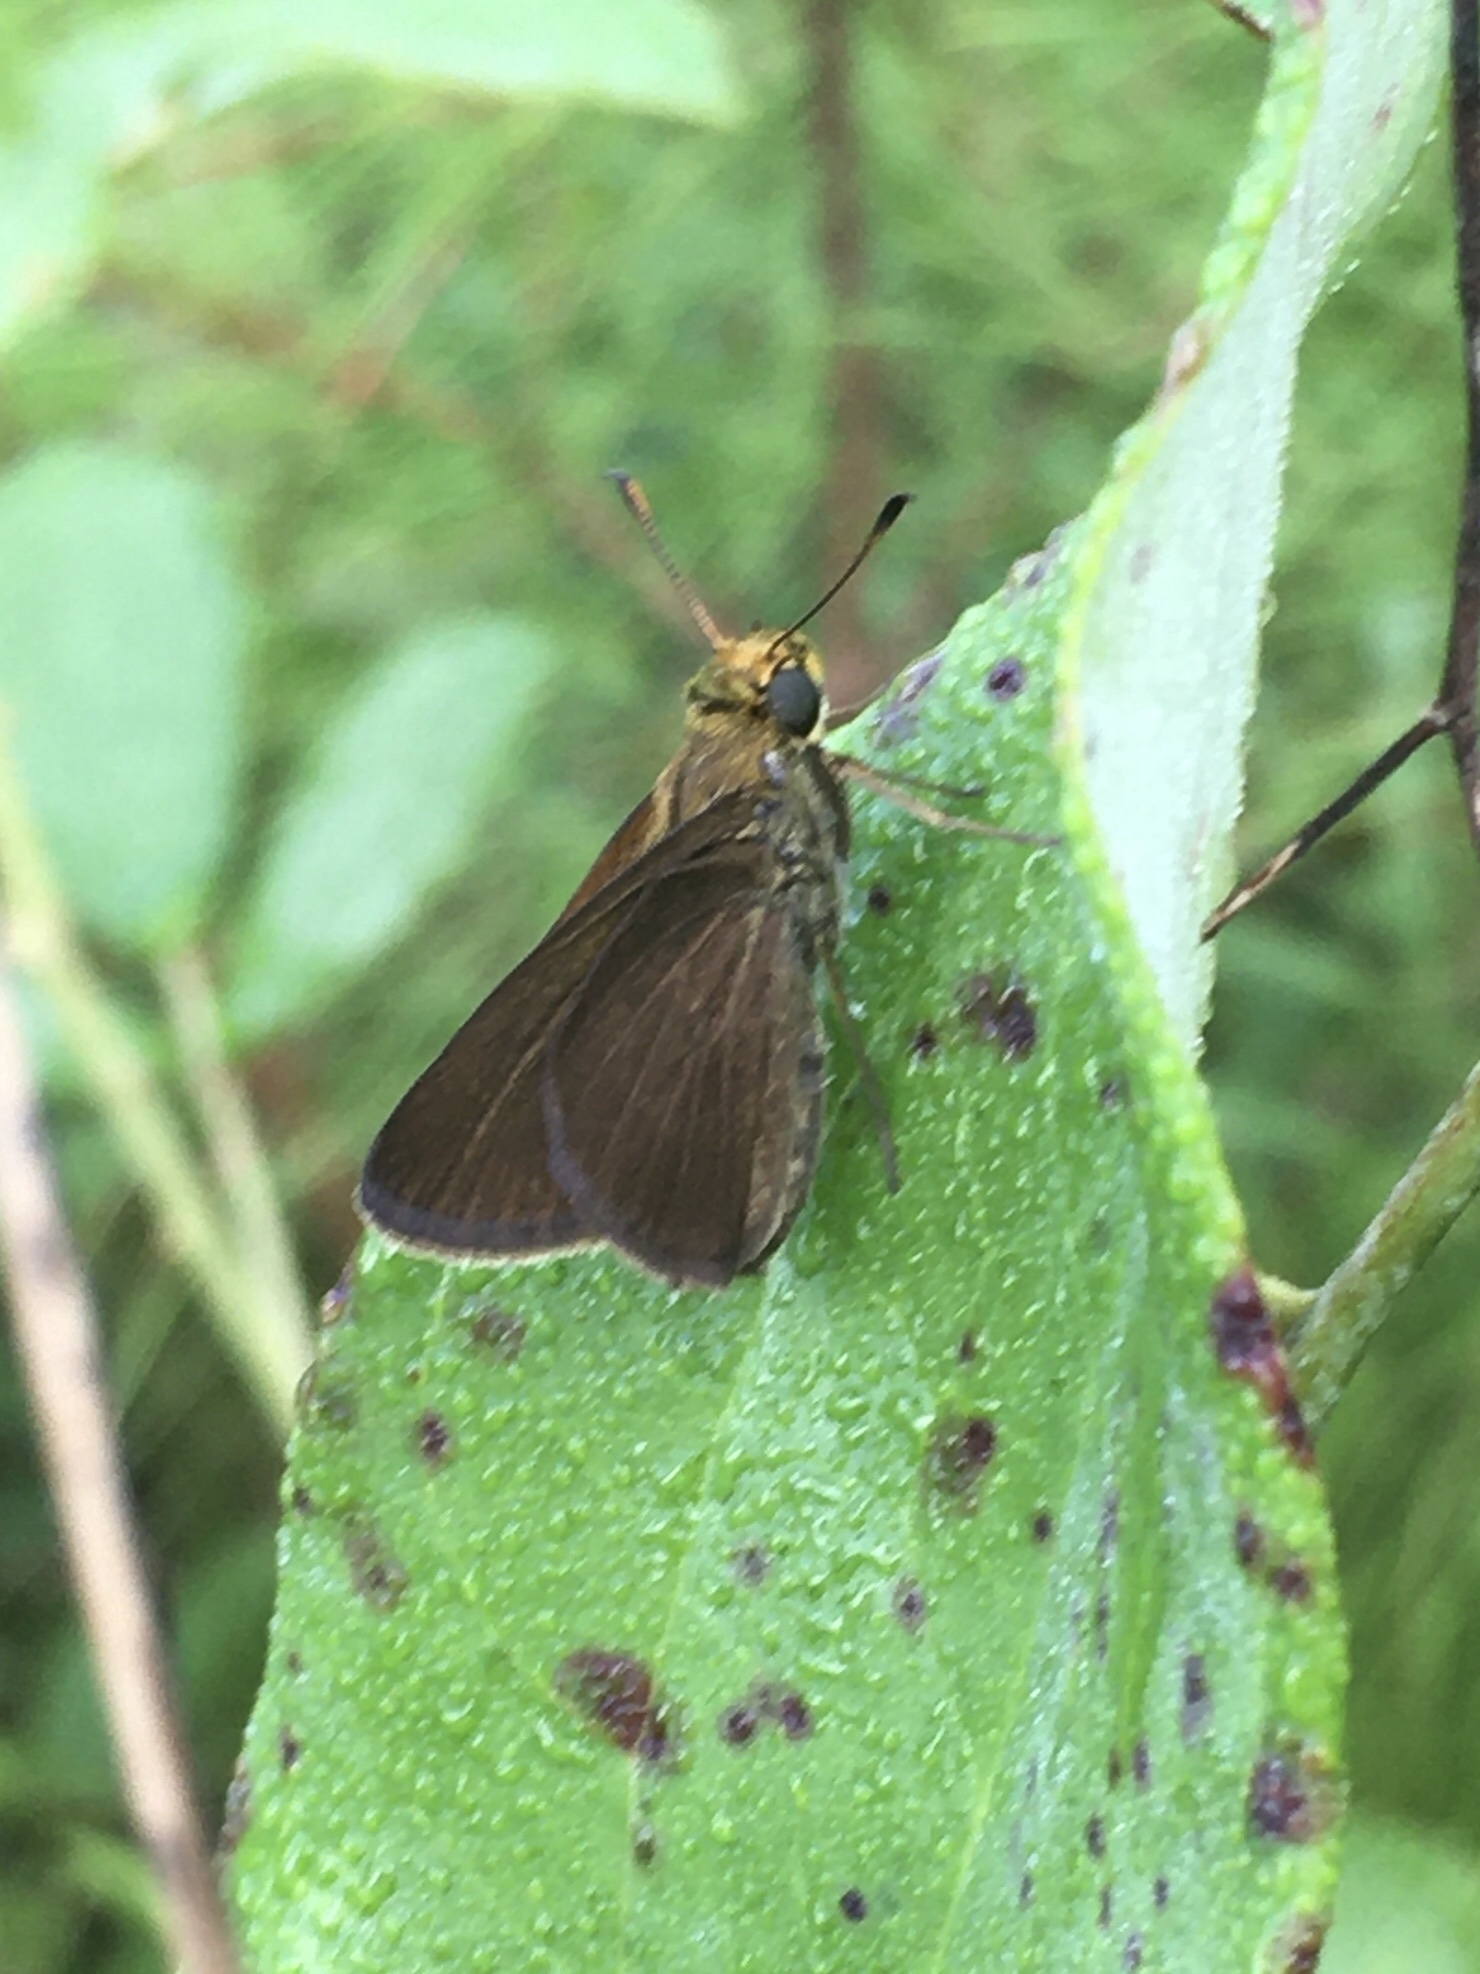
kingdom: Animalia
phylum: Arthropoda
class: Insecta
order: Lepidoptera
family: Hesperiidae
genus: Euphyes
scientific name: Euphyes vestris
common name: Dun skipper
